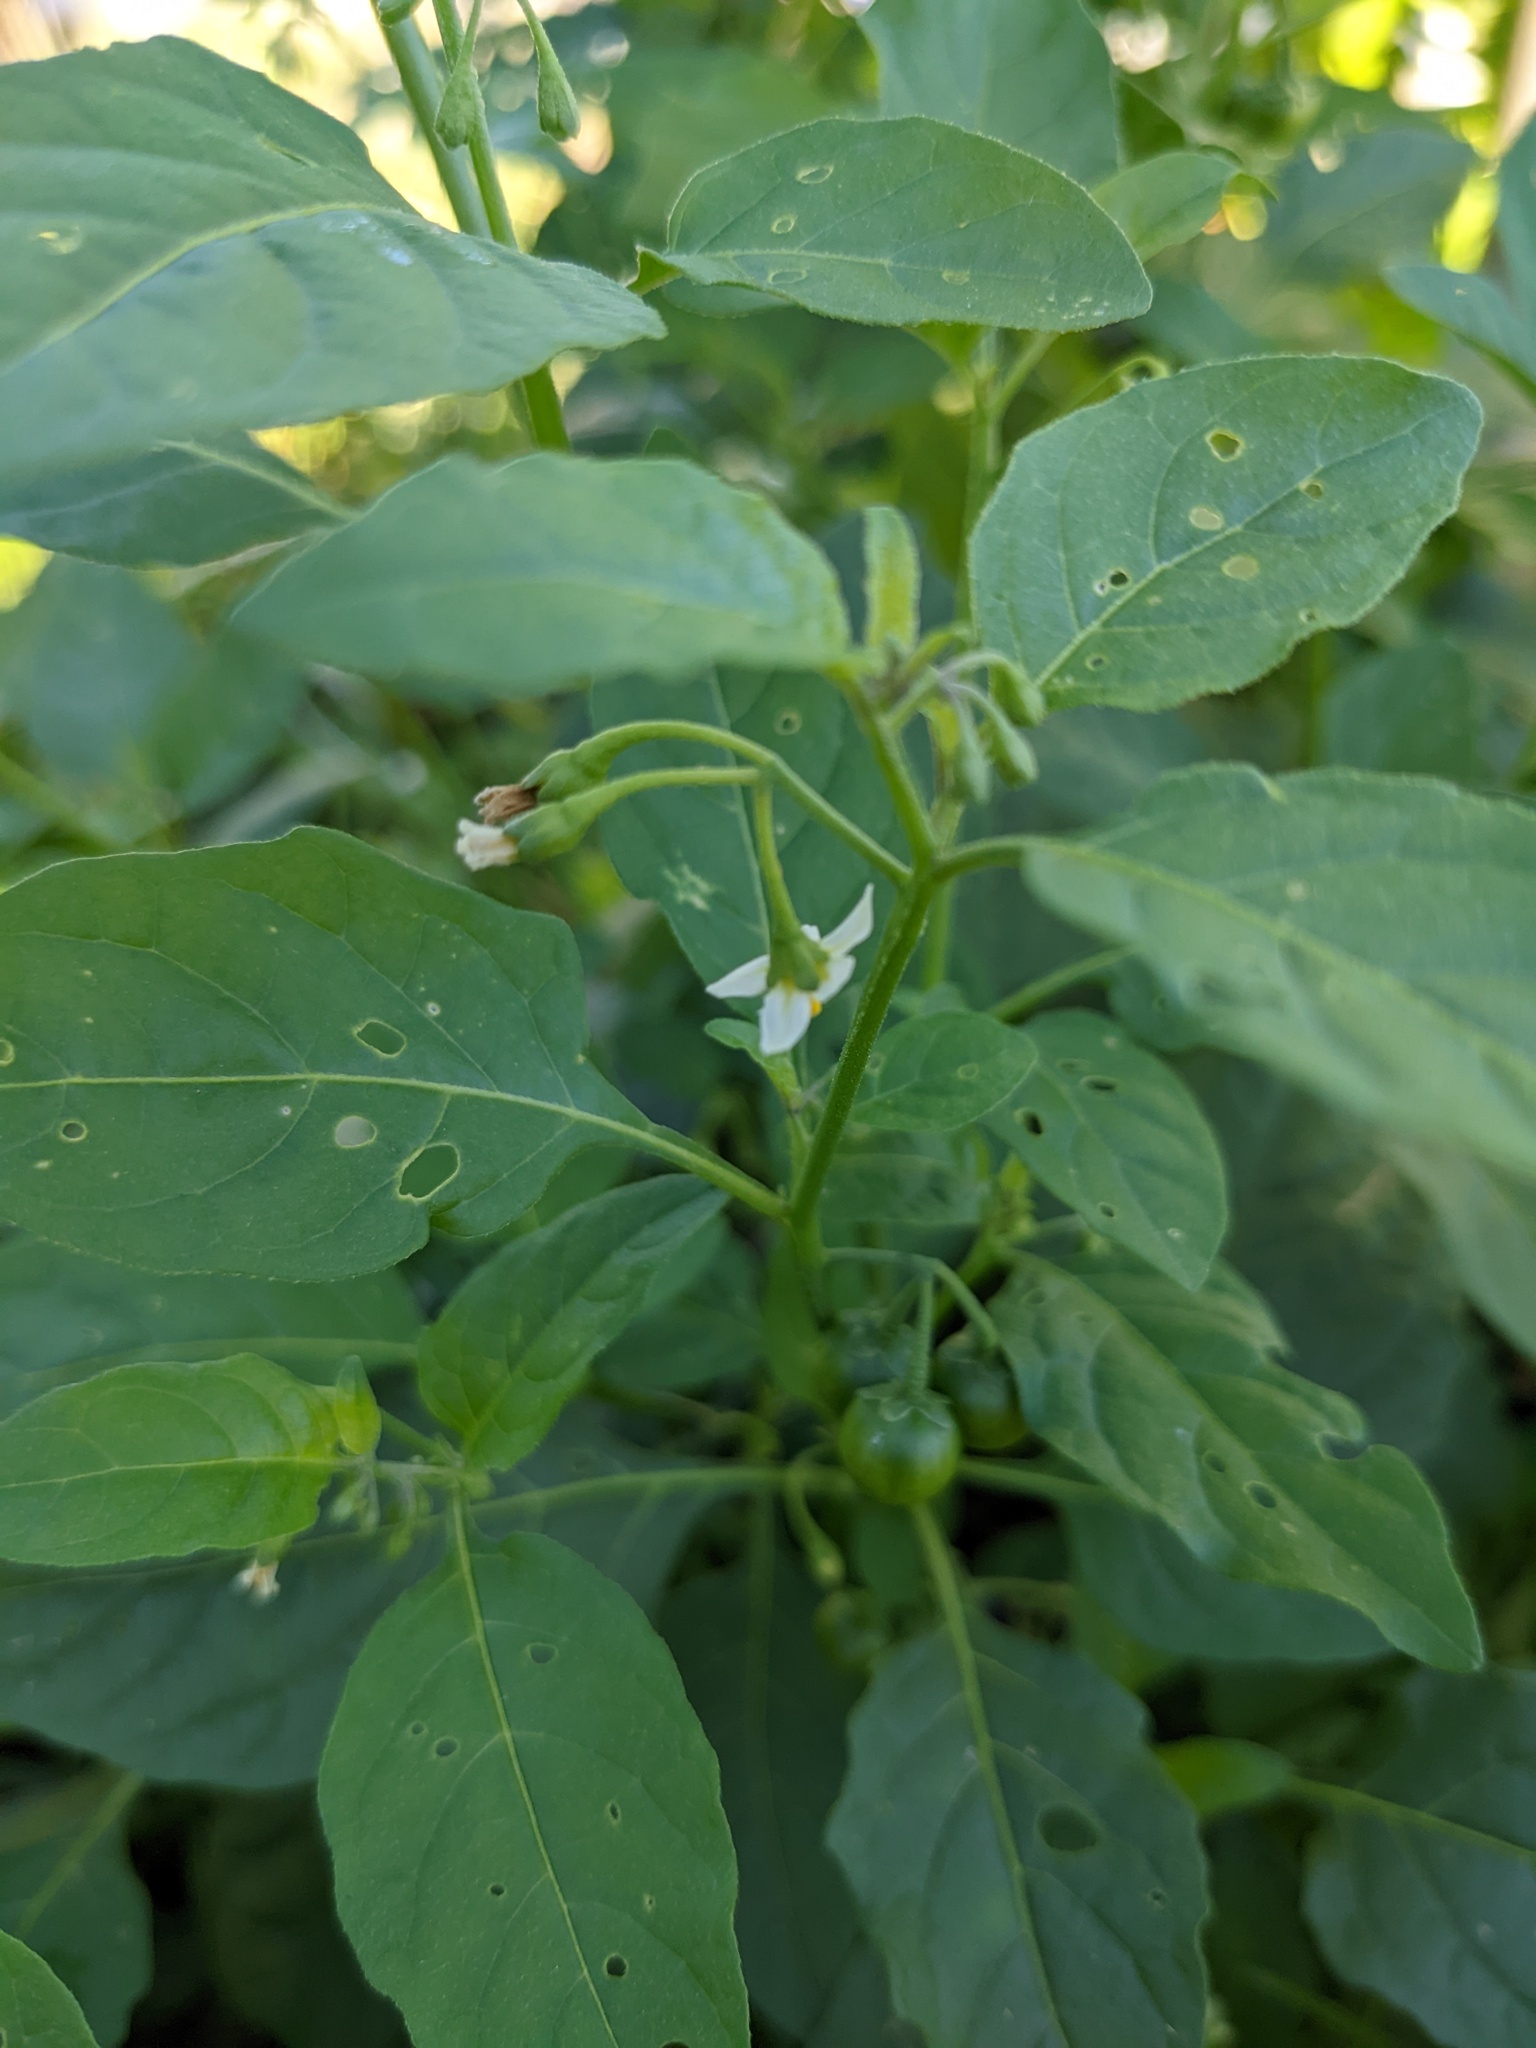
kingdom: Plantae
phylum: Tracheophyta
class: Magnoliopsida
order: Solanales
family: Solanaceae
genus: Solanum
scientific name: Solanum emulans
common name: Eastern black nightshade
